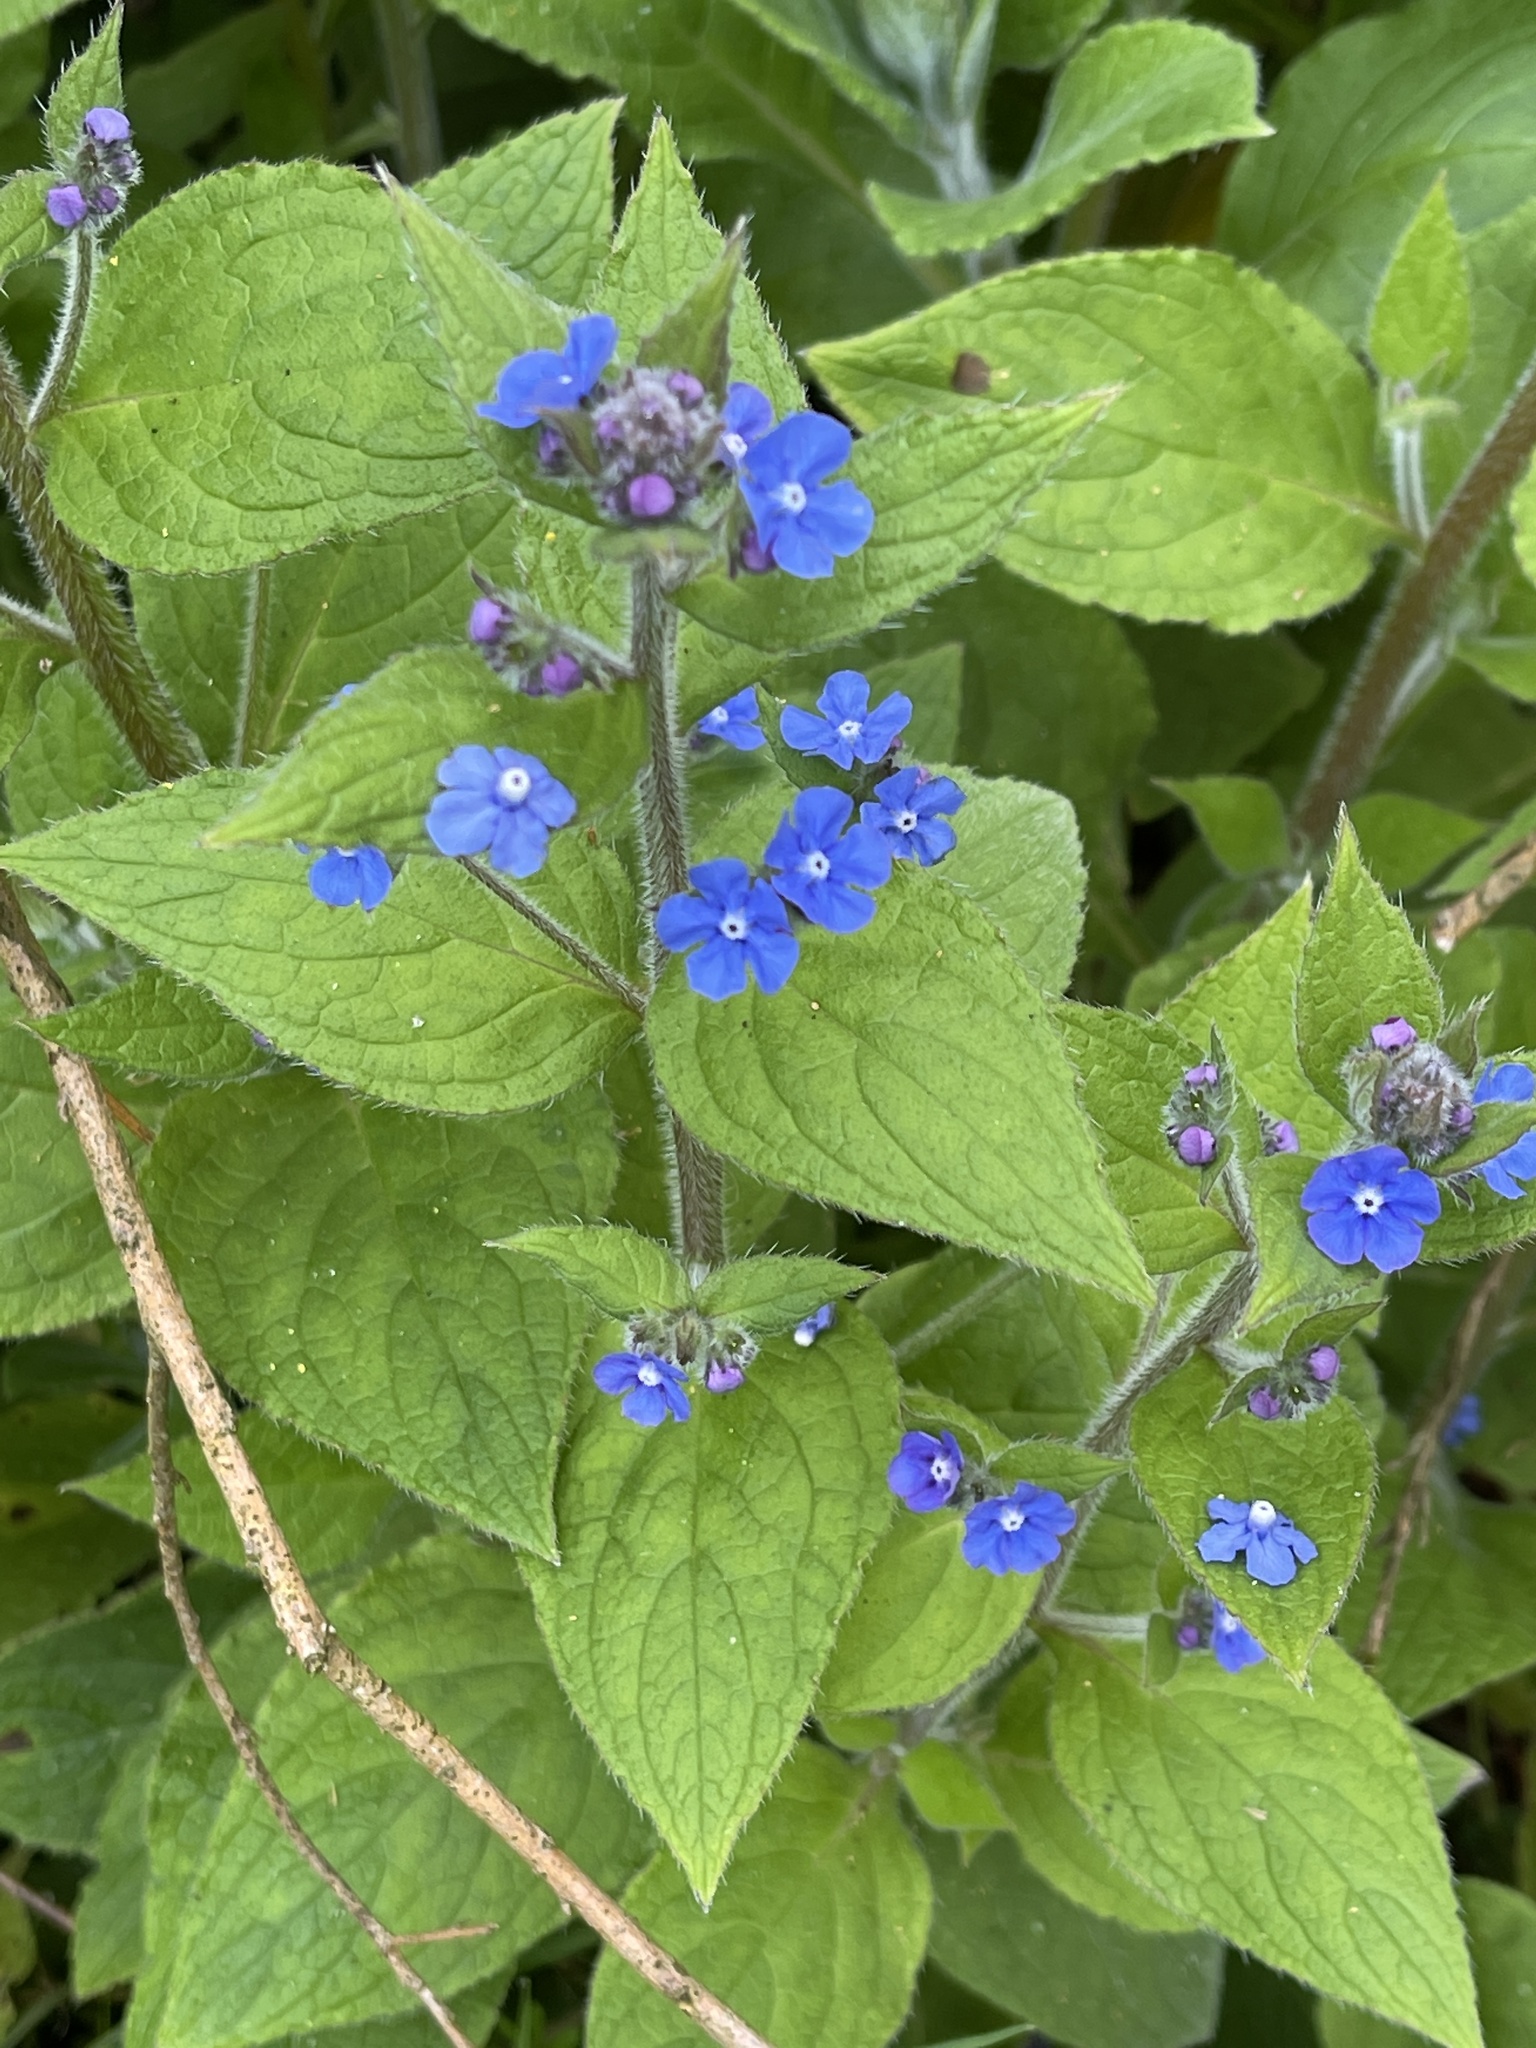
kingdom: Plantae
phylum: Tracheophyta
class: Magnoliopsida
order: Boraginales
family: Boraginaceae
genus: Pentaglottis
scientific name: Pentaglottis sempervirens
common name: Green alkanet
